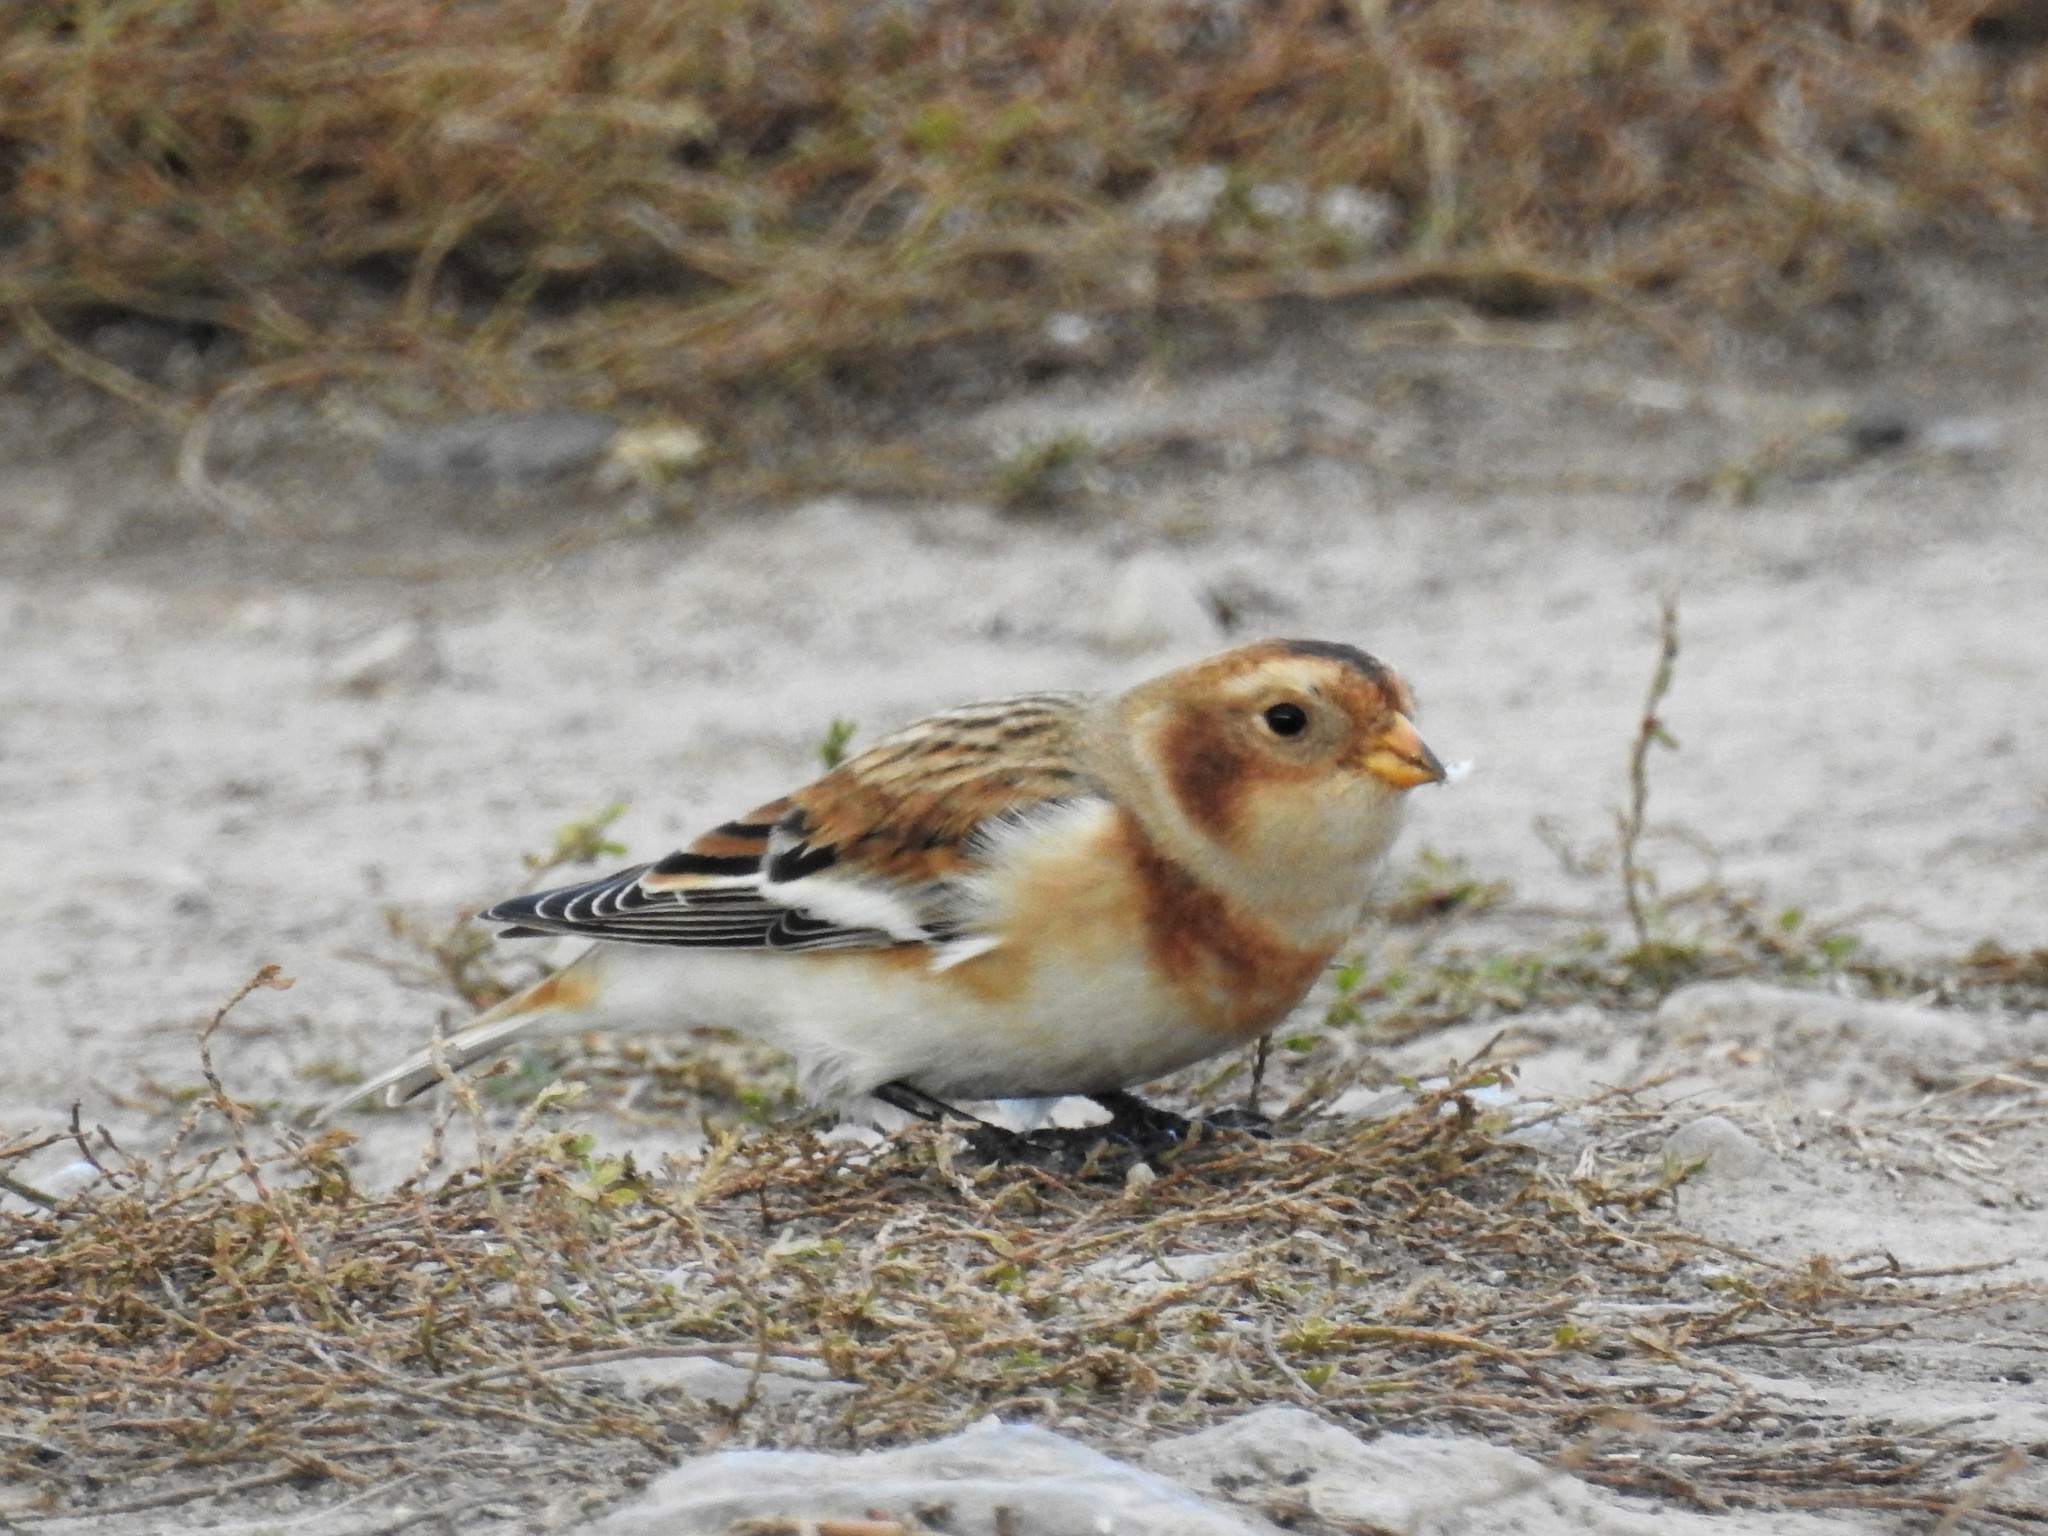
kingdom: Animalia
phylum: Chordata
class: Aves
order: Passeriformes
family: Calcariidae
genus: Plectrophenax
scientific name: Plectrophenax nivalis
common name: Snow bunting
